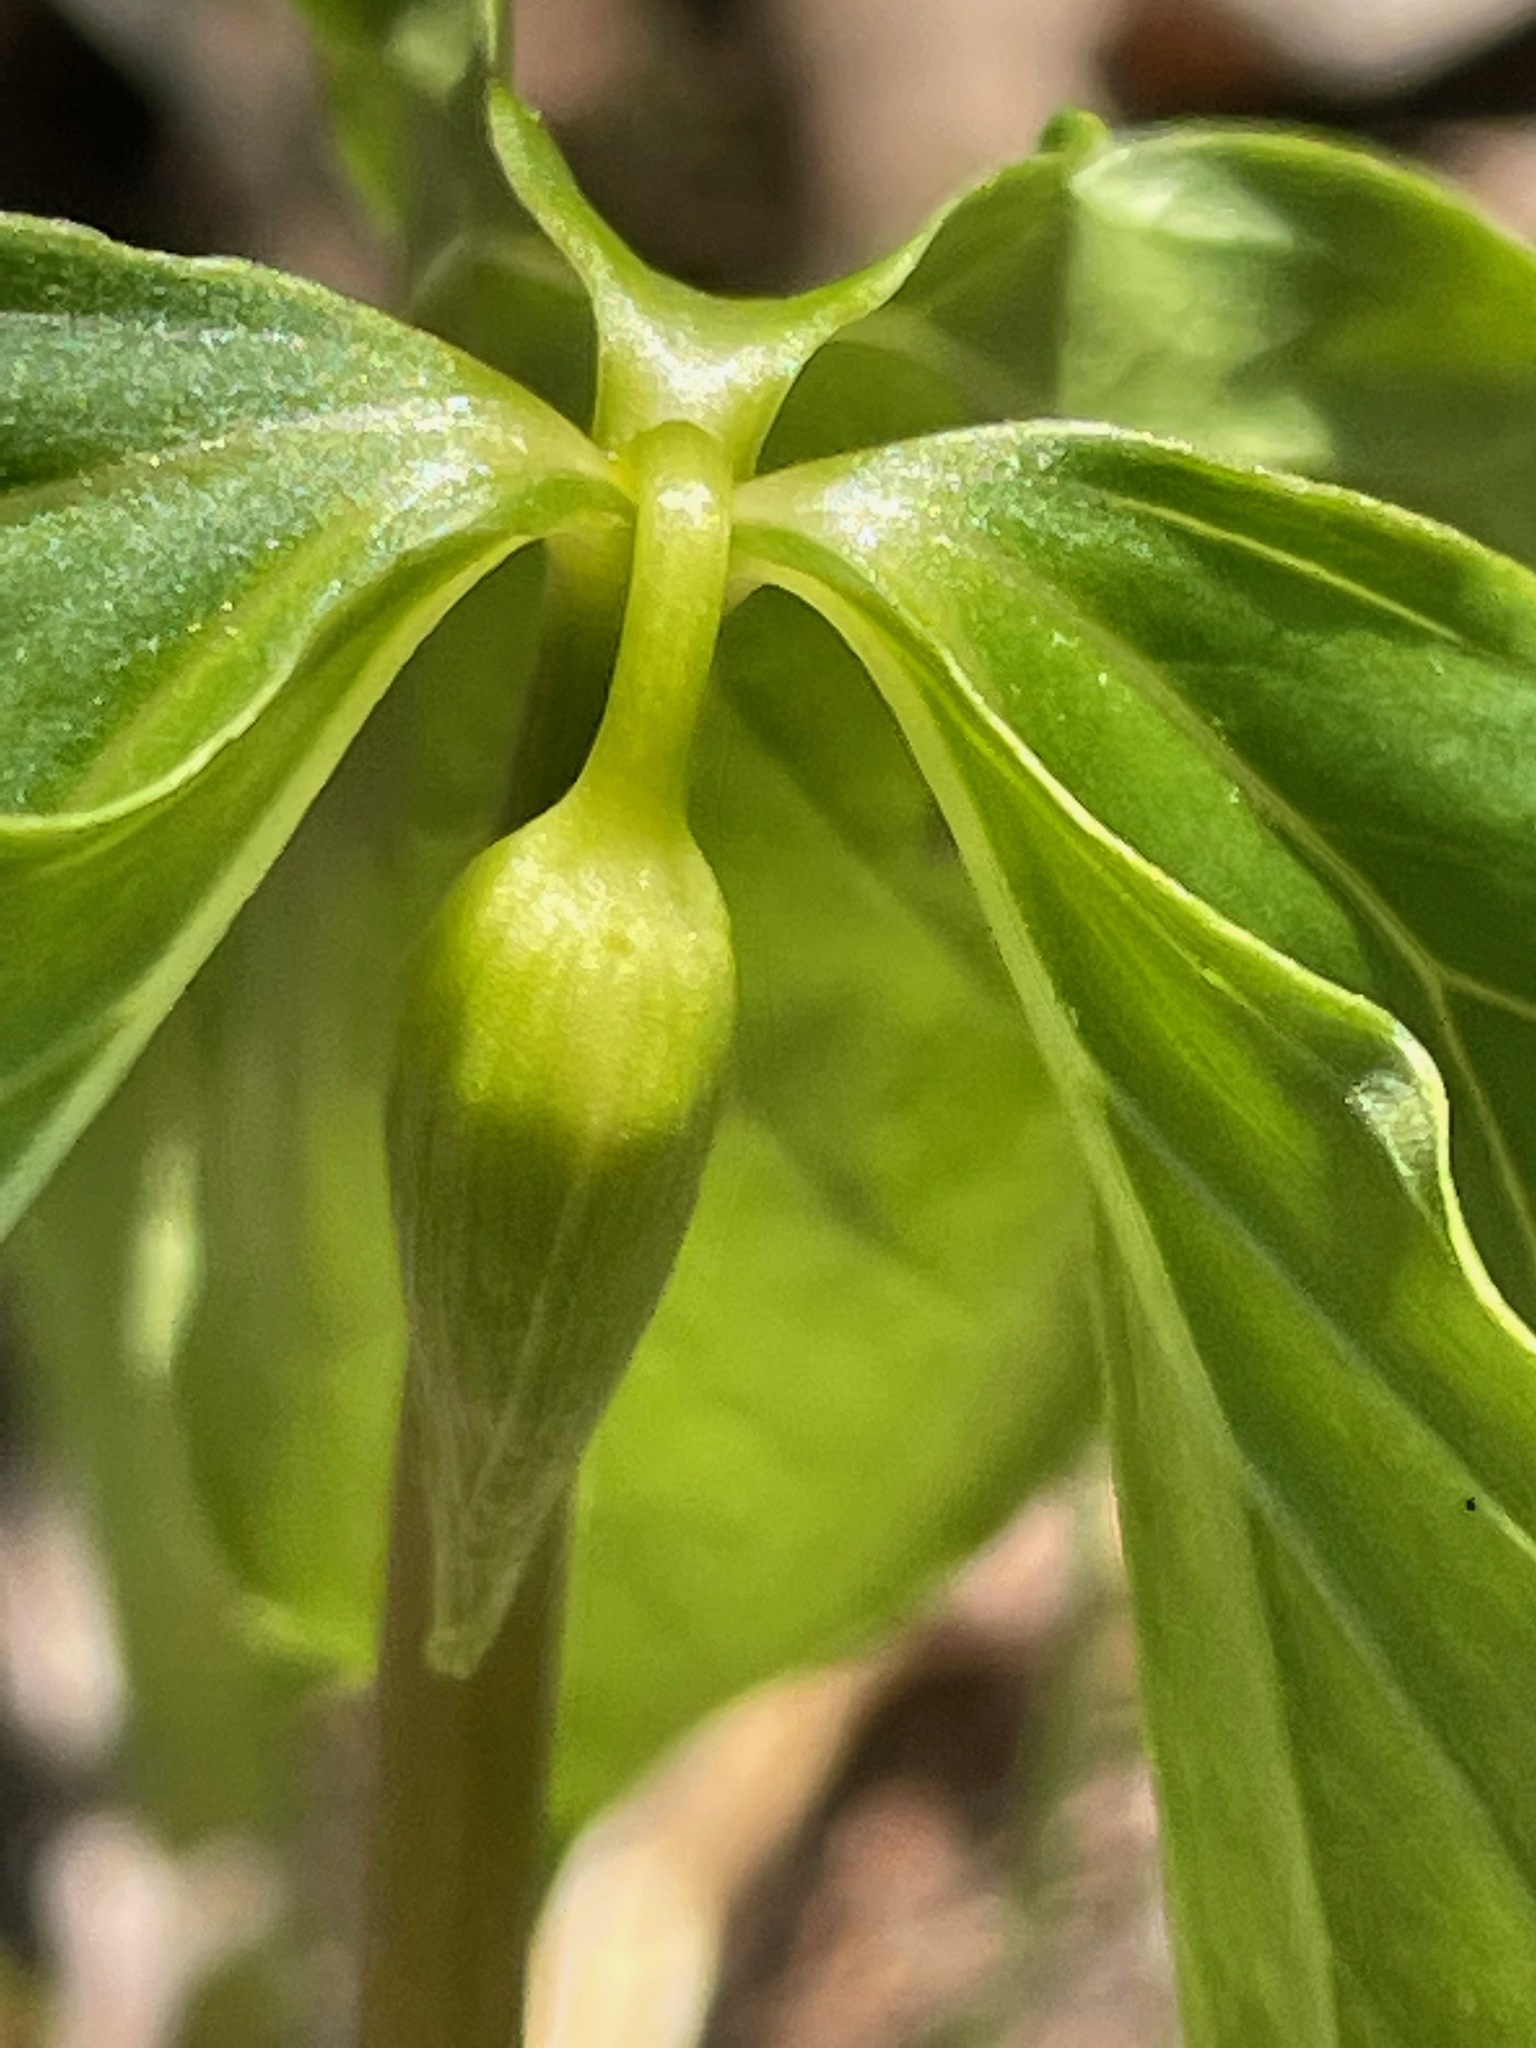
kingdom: Plantae
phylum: Tracheophyta
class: Liliopsida
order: Liliales
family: Melanthiaceae
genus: Trillium
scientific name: Trillium cernuum
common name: Nodding trillium
